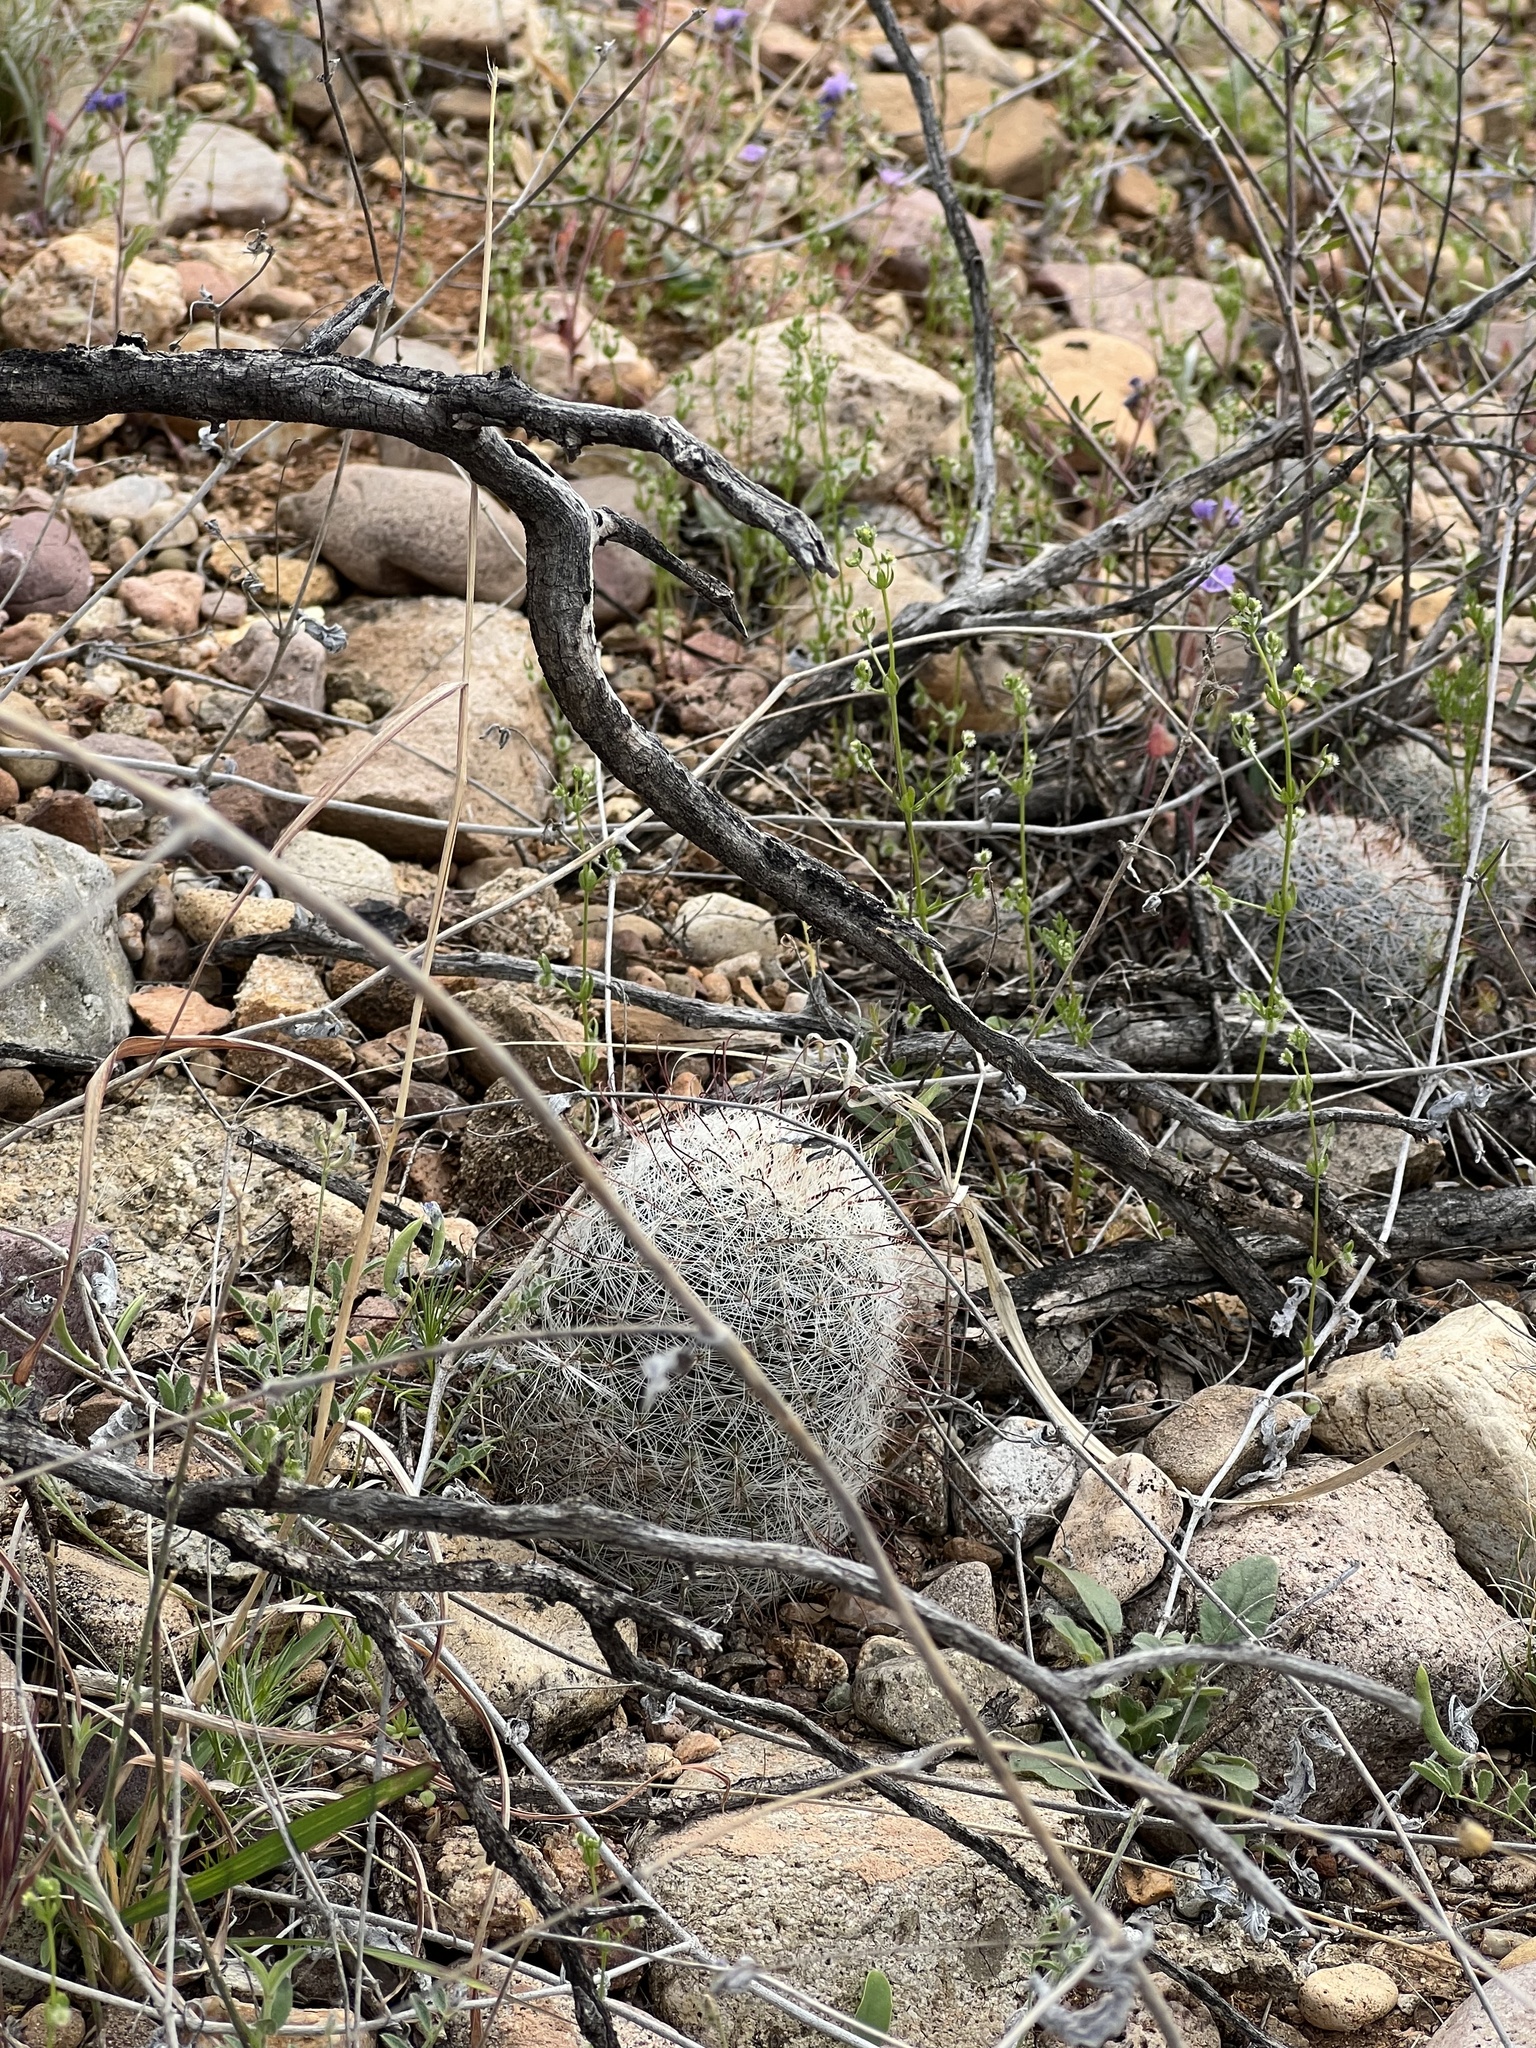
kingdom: Plantae
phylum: Tracheophyta
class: Magnoliopsida
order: Caryophyllales
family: Cactaceae
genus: Cochemiea
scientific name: Cochemiea grahamii
